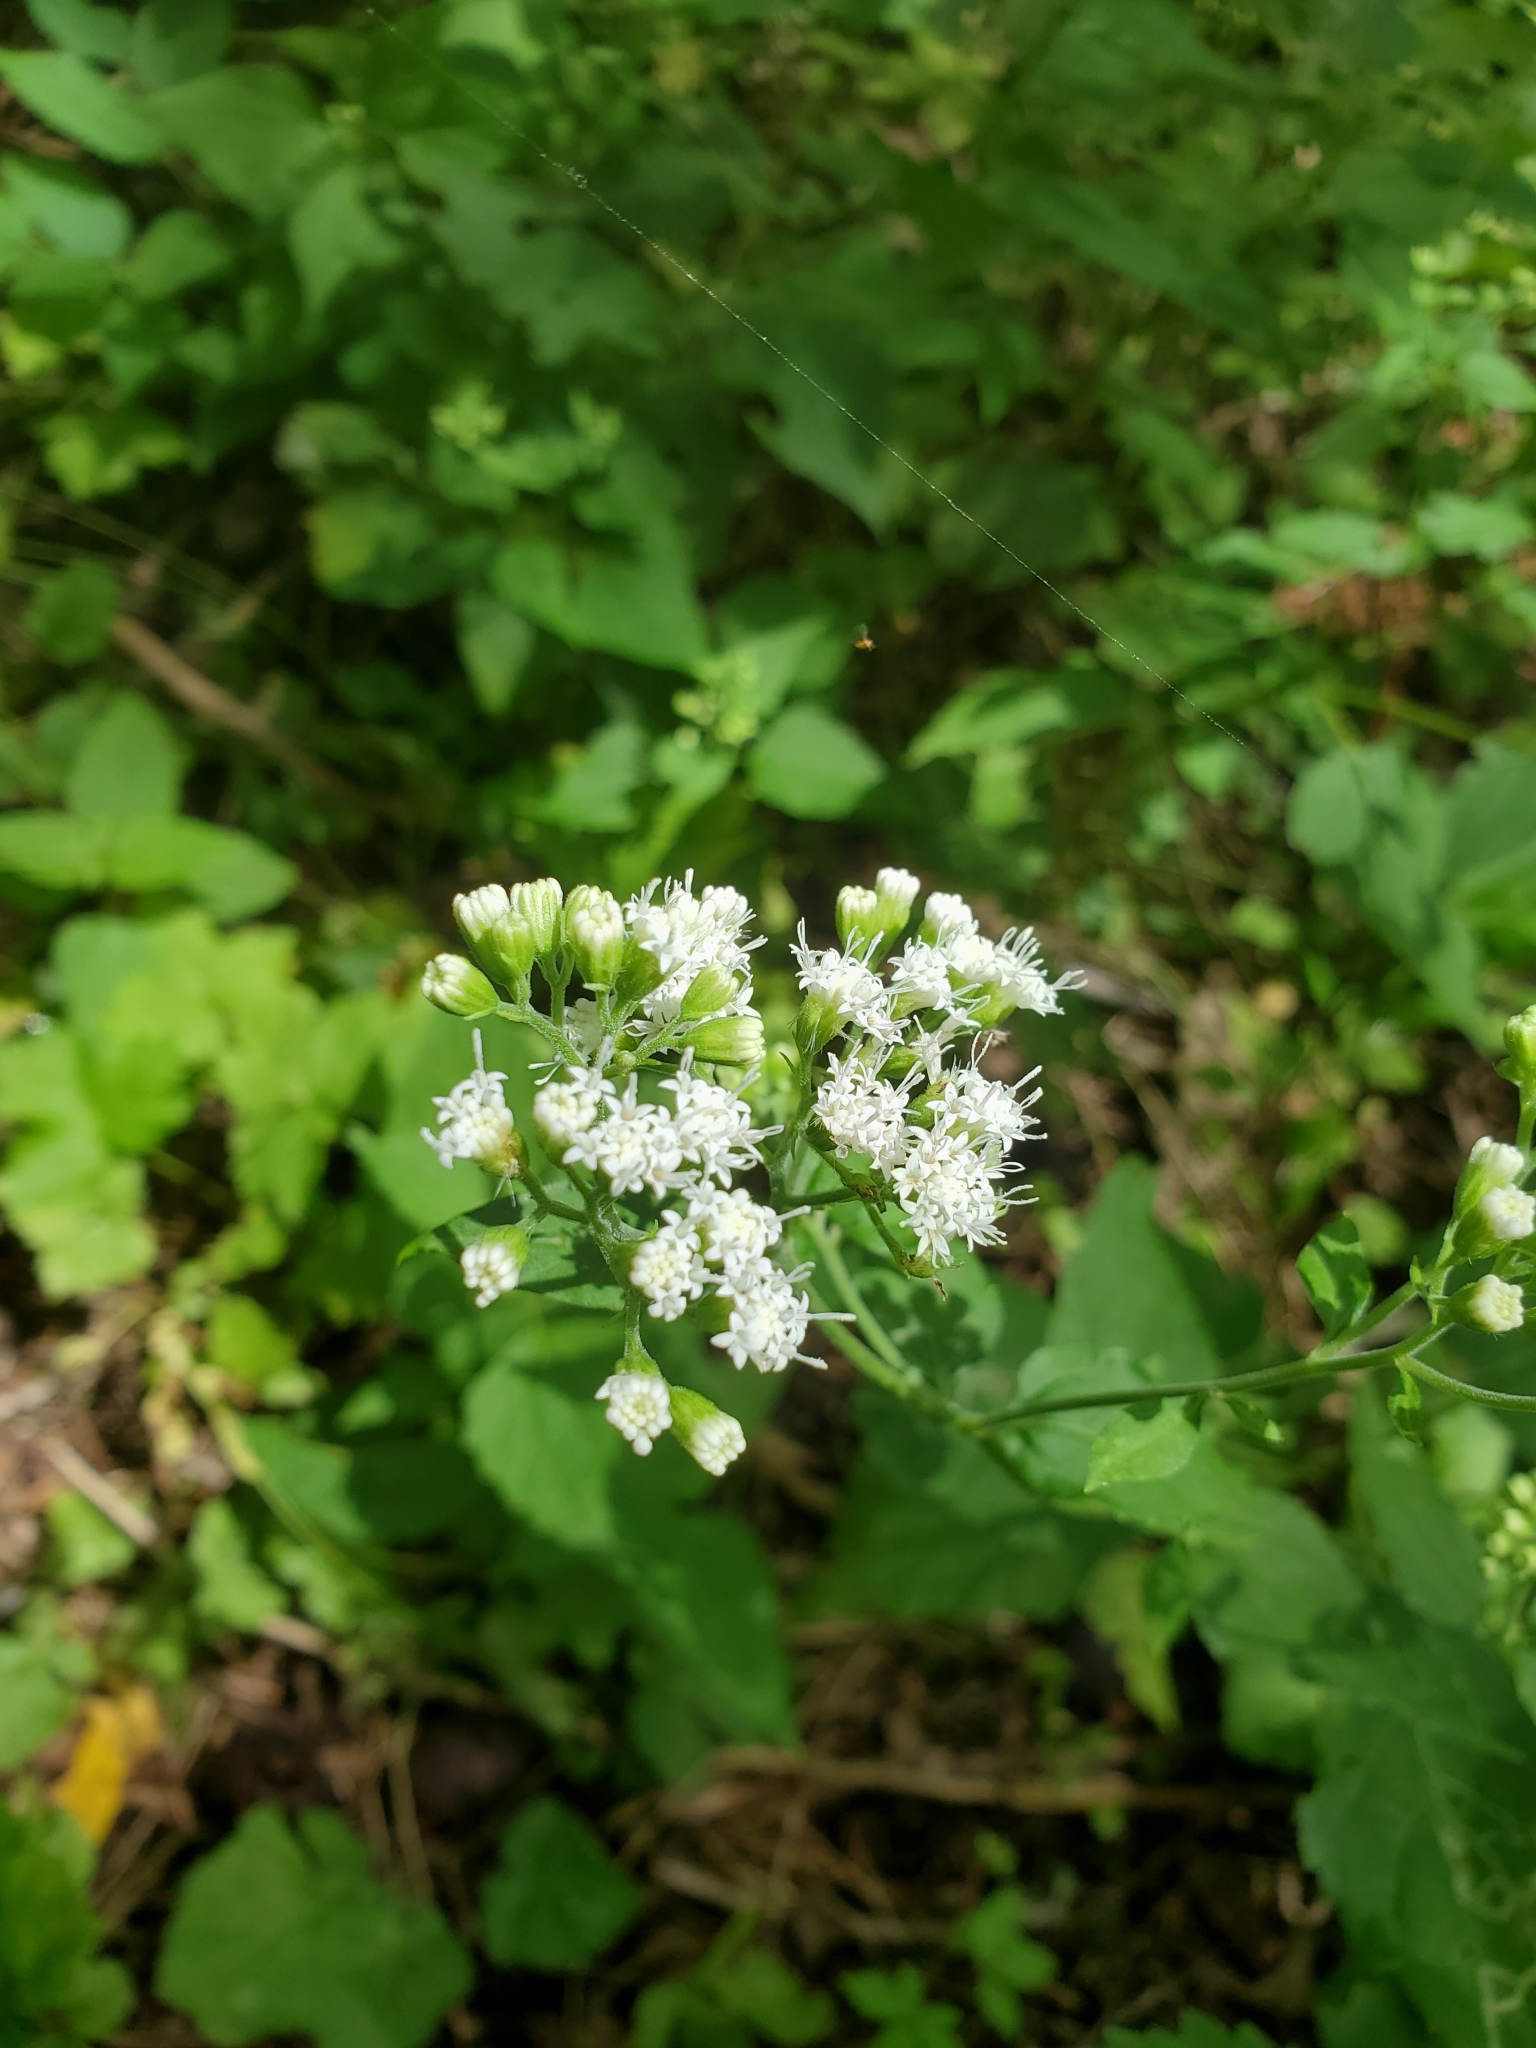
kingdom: Plantae
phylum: Tracheophyta
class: Magnoliopsida
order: Asterales
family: Asteraceae
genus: Ageratina
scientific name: Ageratina altissima
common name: White snakeroot
